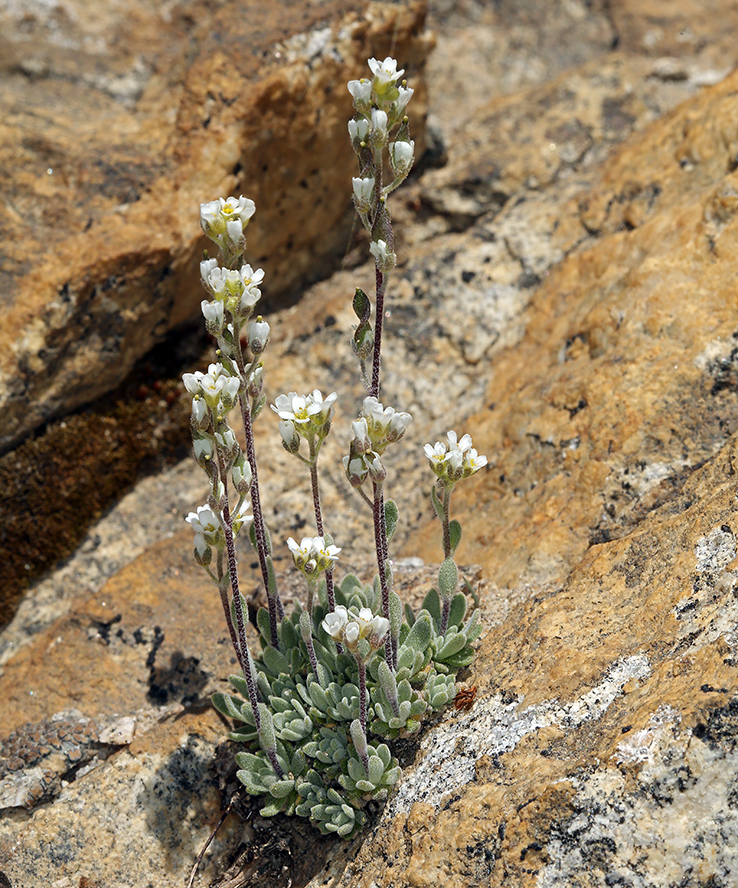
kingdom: Plantae
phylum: Tracheophyta
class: Magnoliopsida
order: Brassicales
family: Brassicaceae
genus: Draba
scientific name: Draba breweri
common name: Cushion draba
